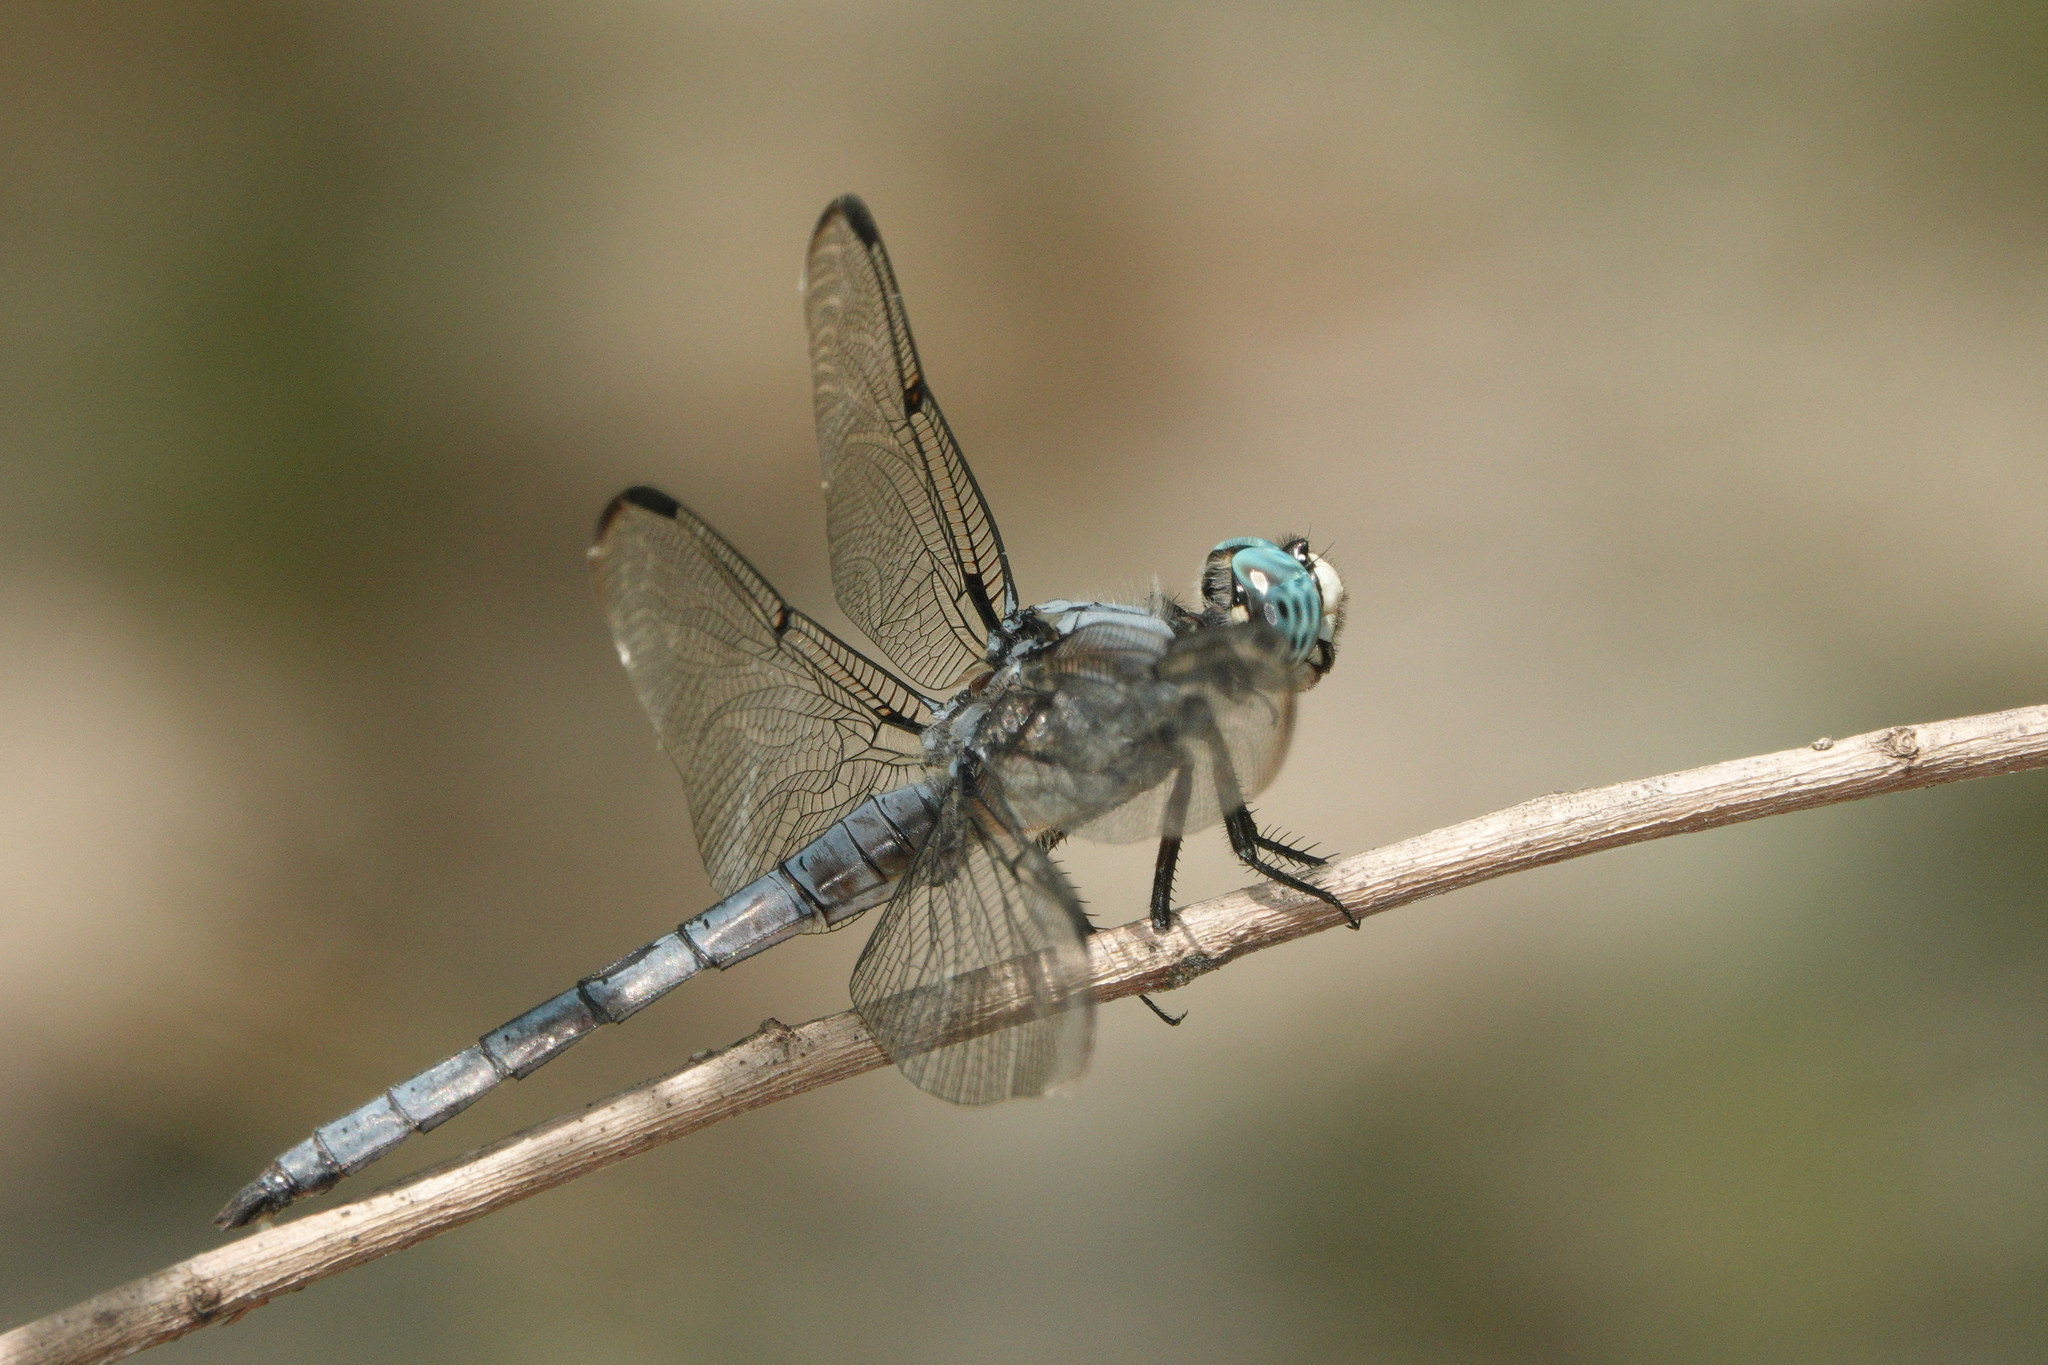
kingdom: Animalia
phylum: Arthropoda
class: Insecta
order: Odonata
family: Libellulidae
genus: Libellula
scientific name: Libellula vibrans
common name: Great blue skimmer
